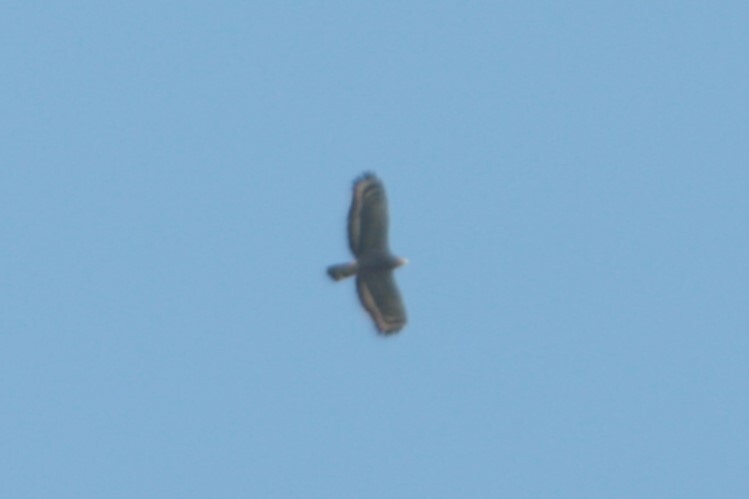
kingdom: Animalia
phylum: Chordata
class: Aves
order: Accipitriformes
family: Accipitridae
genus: Spilornis
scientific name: Spilornis cheela
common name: Crested serpent eagle
